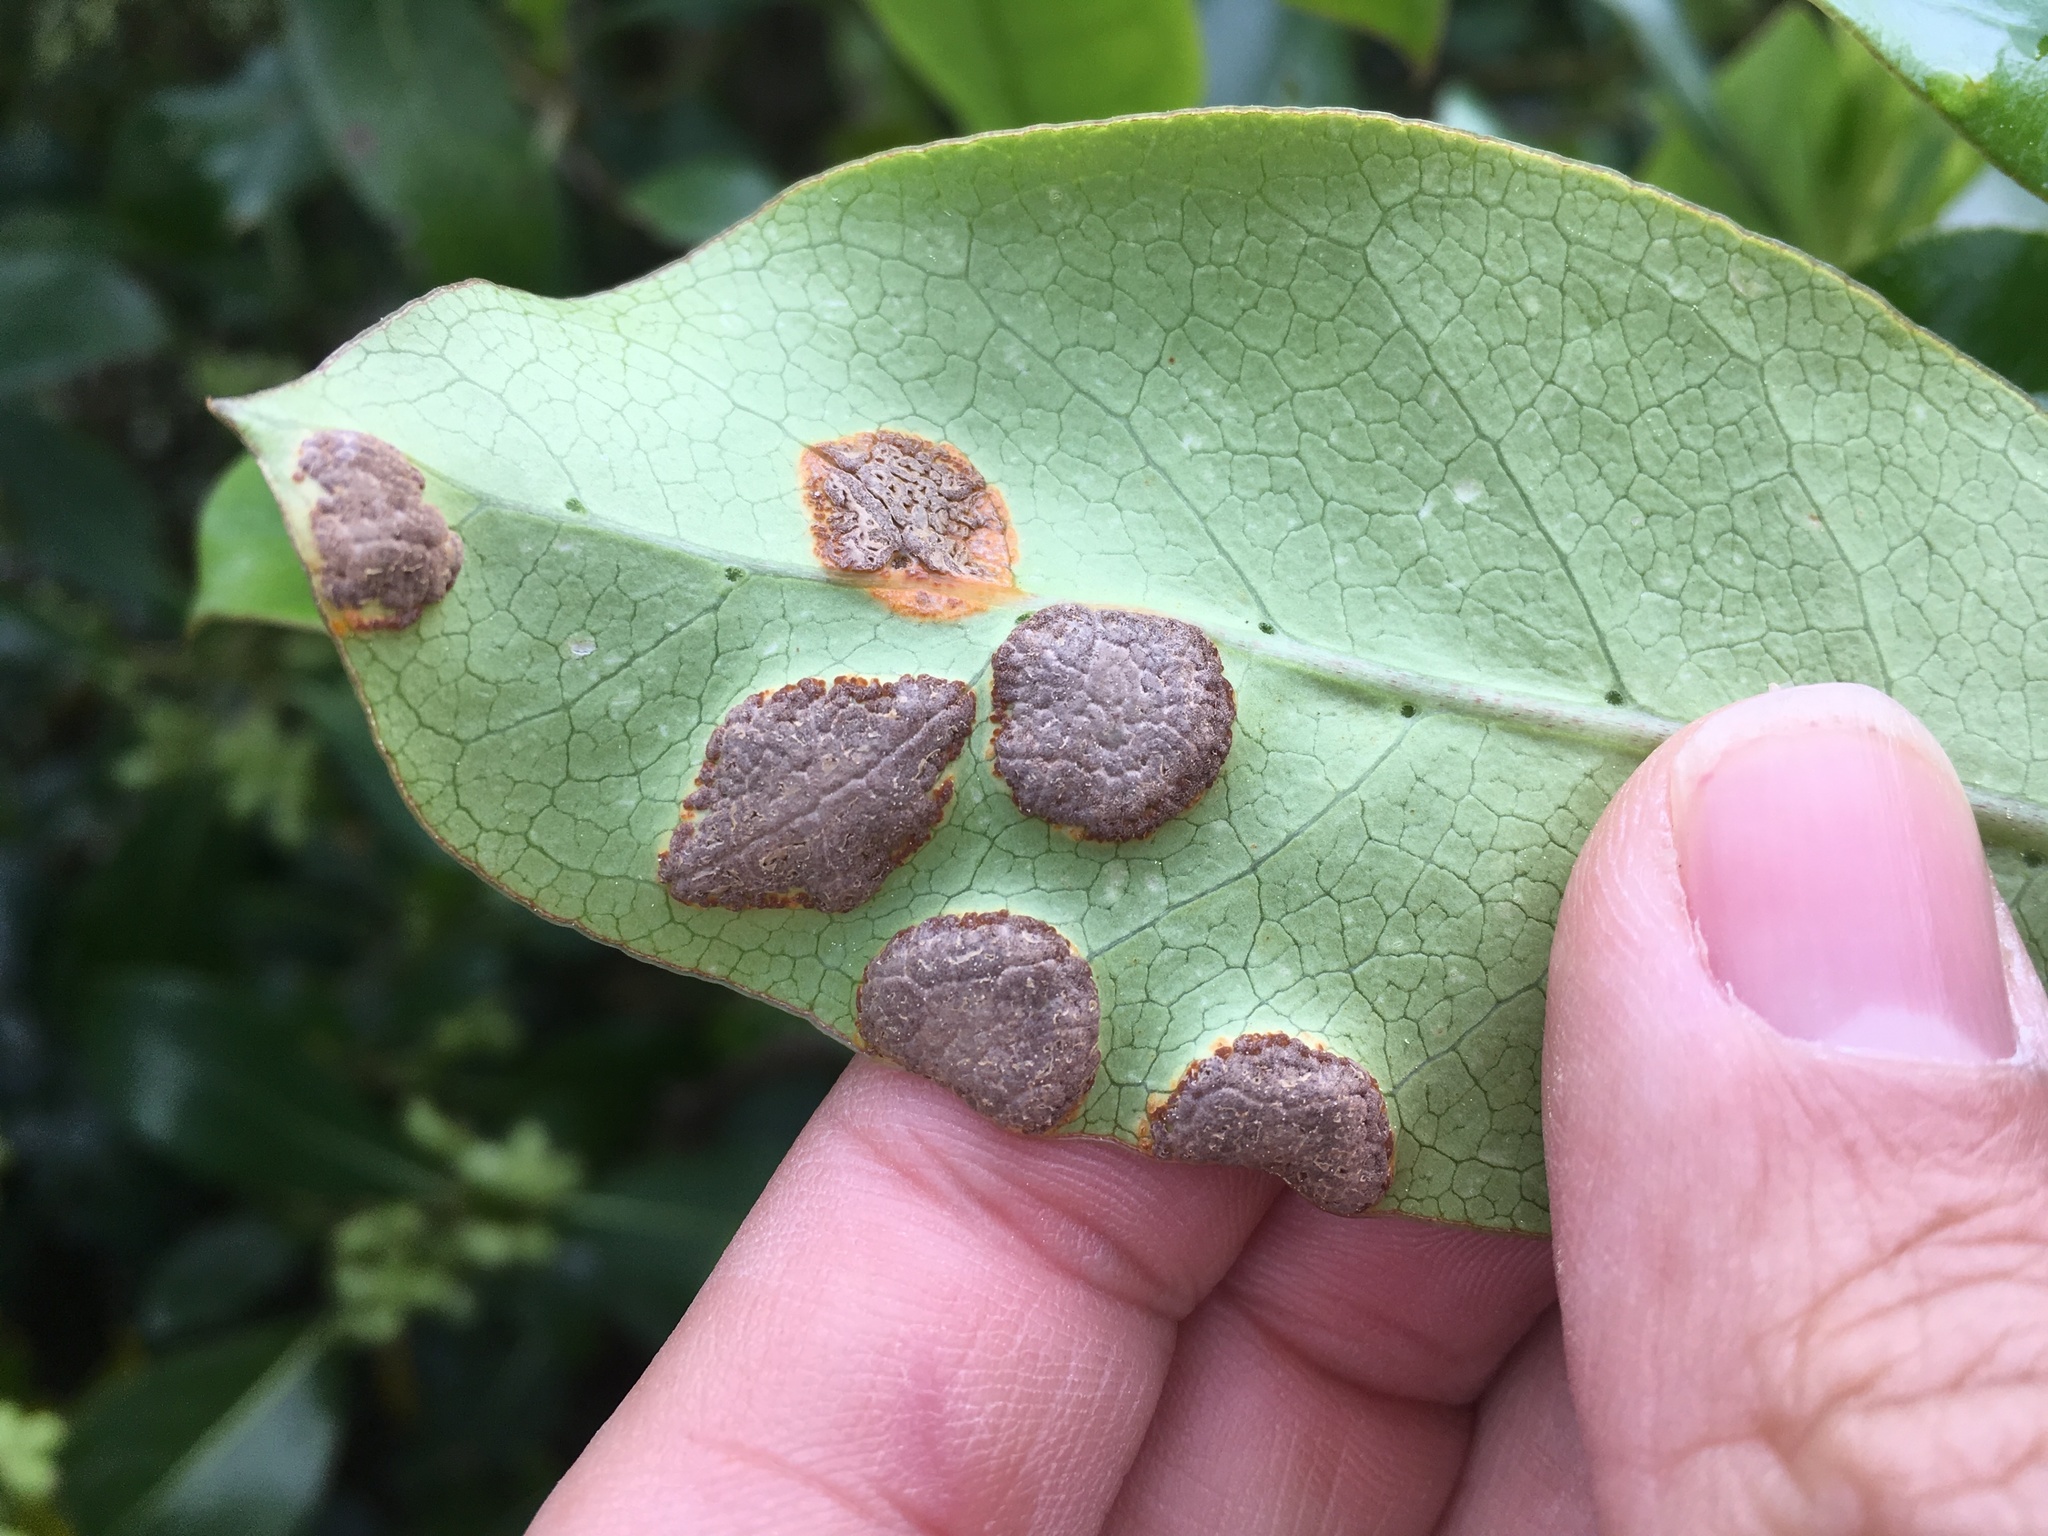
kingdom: Fungi
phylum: Basidiomycota
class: Pucciniomycetes
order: Pucciniales
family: Pucciniaceae
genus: Puccinia
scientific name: Puccinia coprosmae
